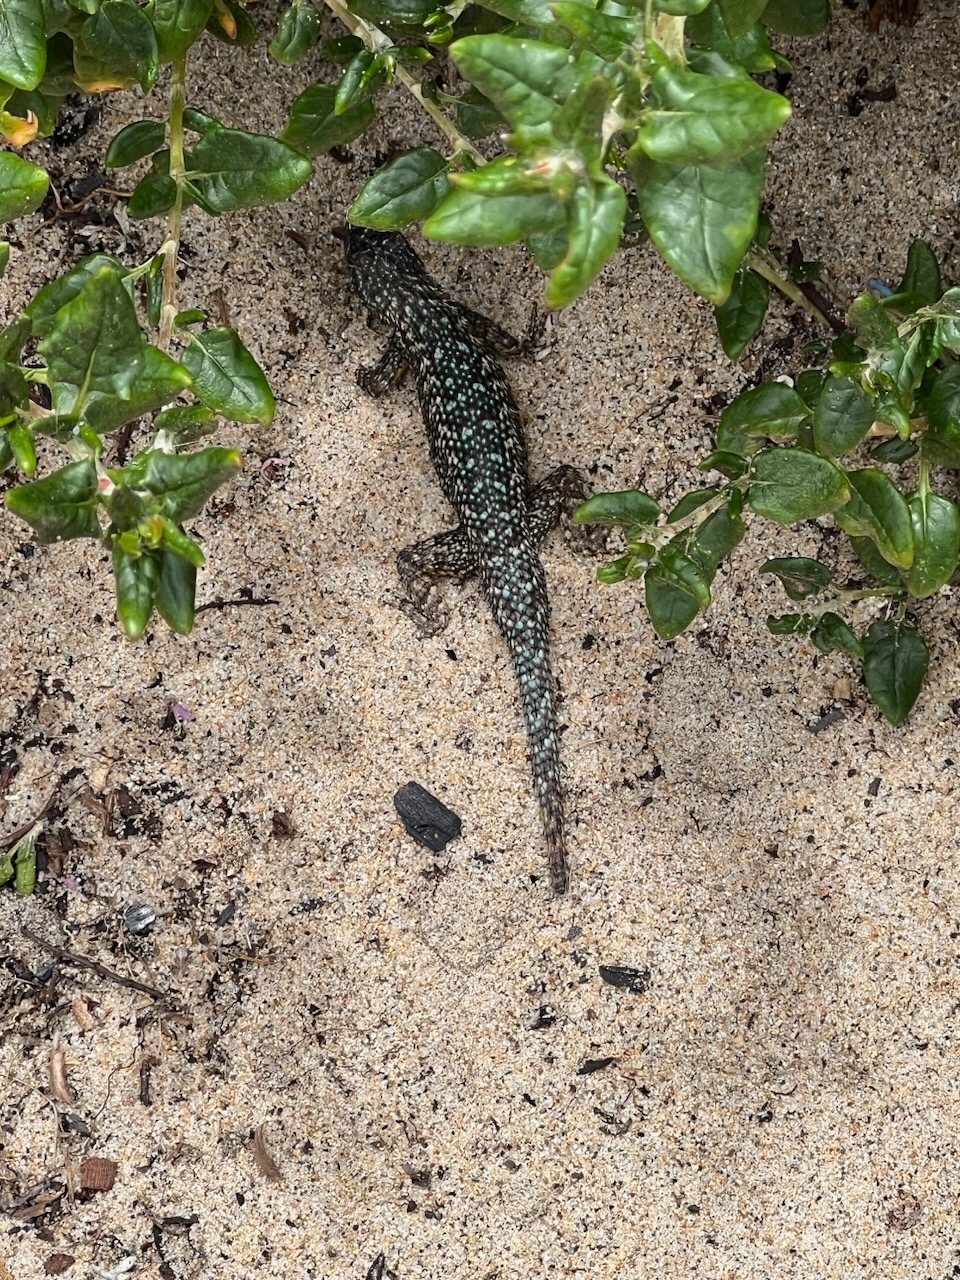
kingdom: Animalia
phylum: Chordata
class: Squamata
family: Phrynosomatidae
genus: Sceloporus
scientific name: Sceloporus occidentalis
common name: Western fence lizard
